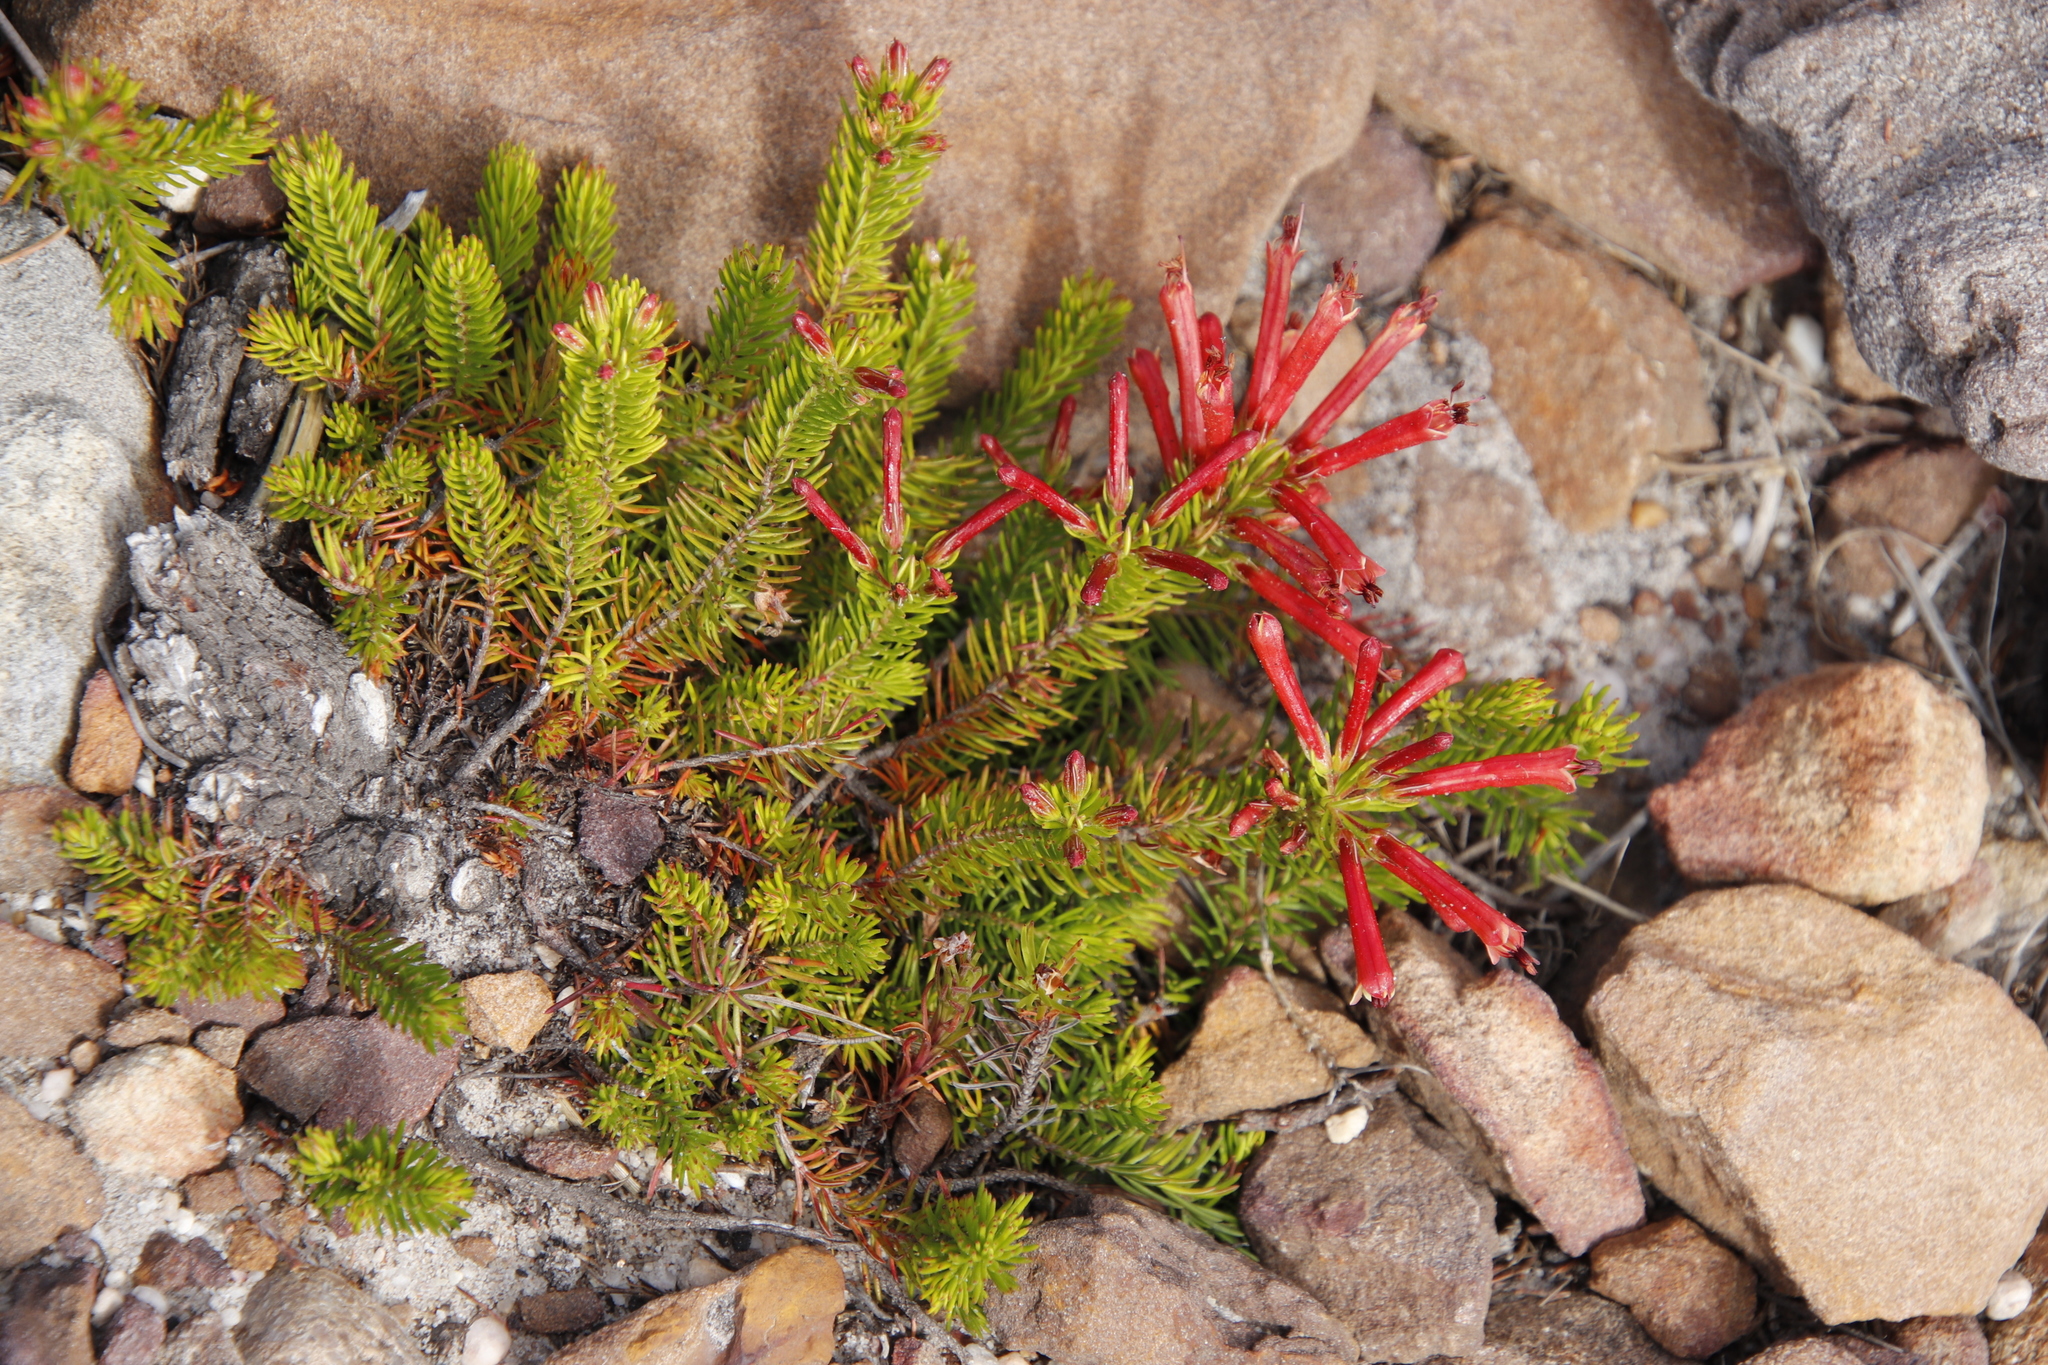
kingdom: Plantae
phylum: Tracheophyta
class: Magnoliopsida
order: Ericales
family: Ericaceae
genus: Erica
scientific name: Erica nevillei
